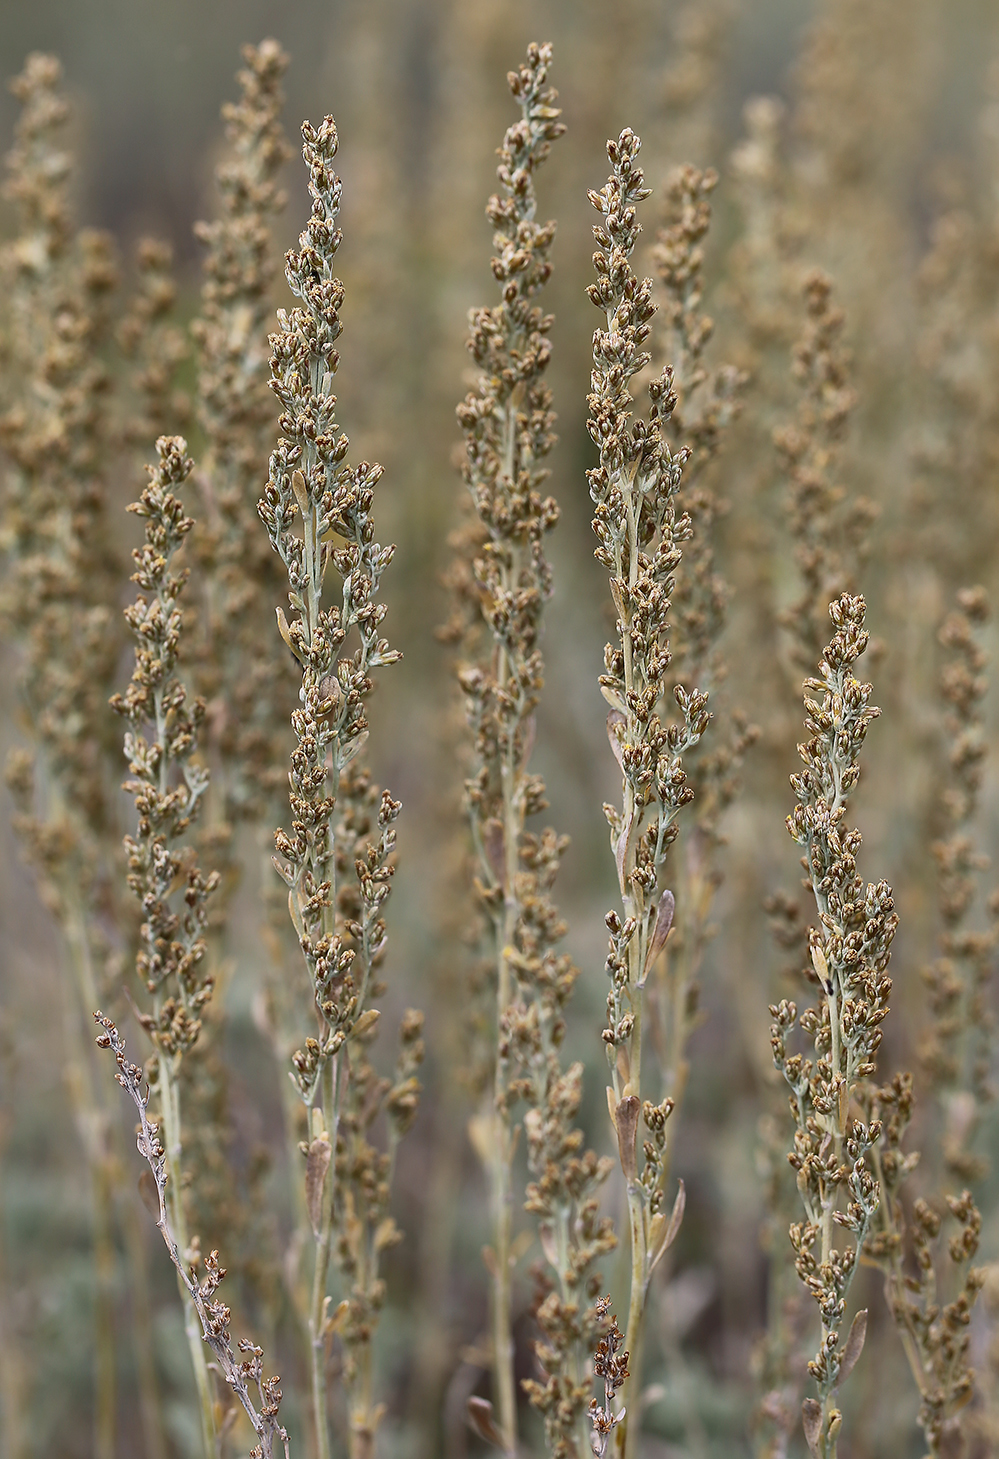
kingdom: Plantae
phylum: Tracheophyta
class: Magnoliopsida
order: Asterales
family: Asteraceae
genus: Artemisia
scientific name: Artemisia tridentata
